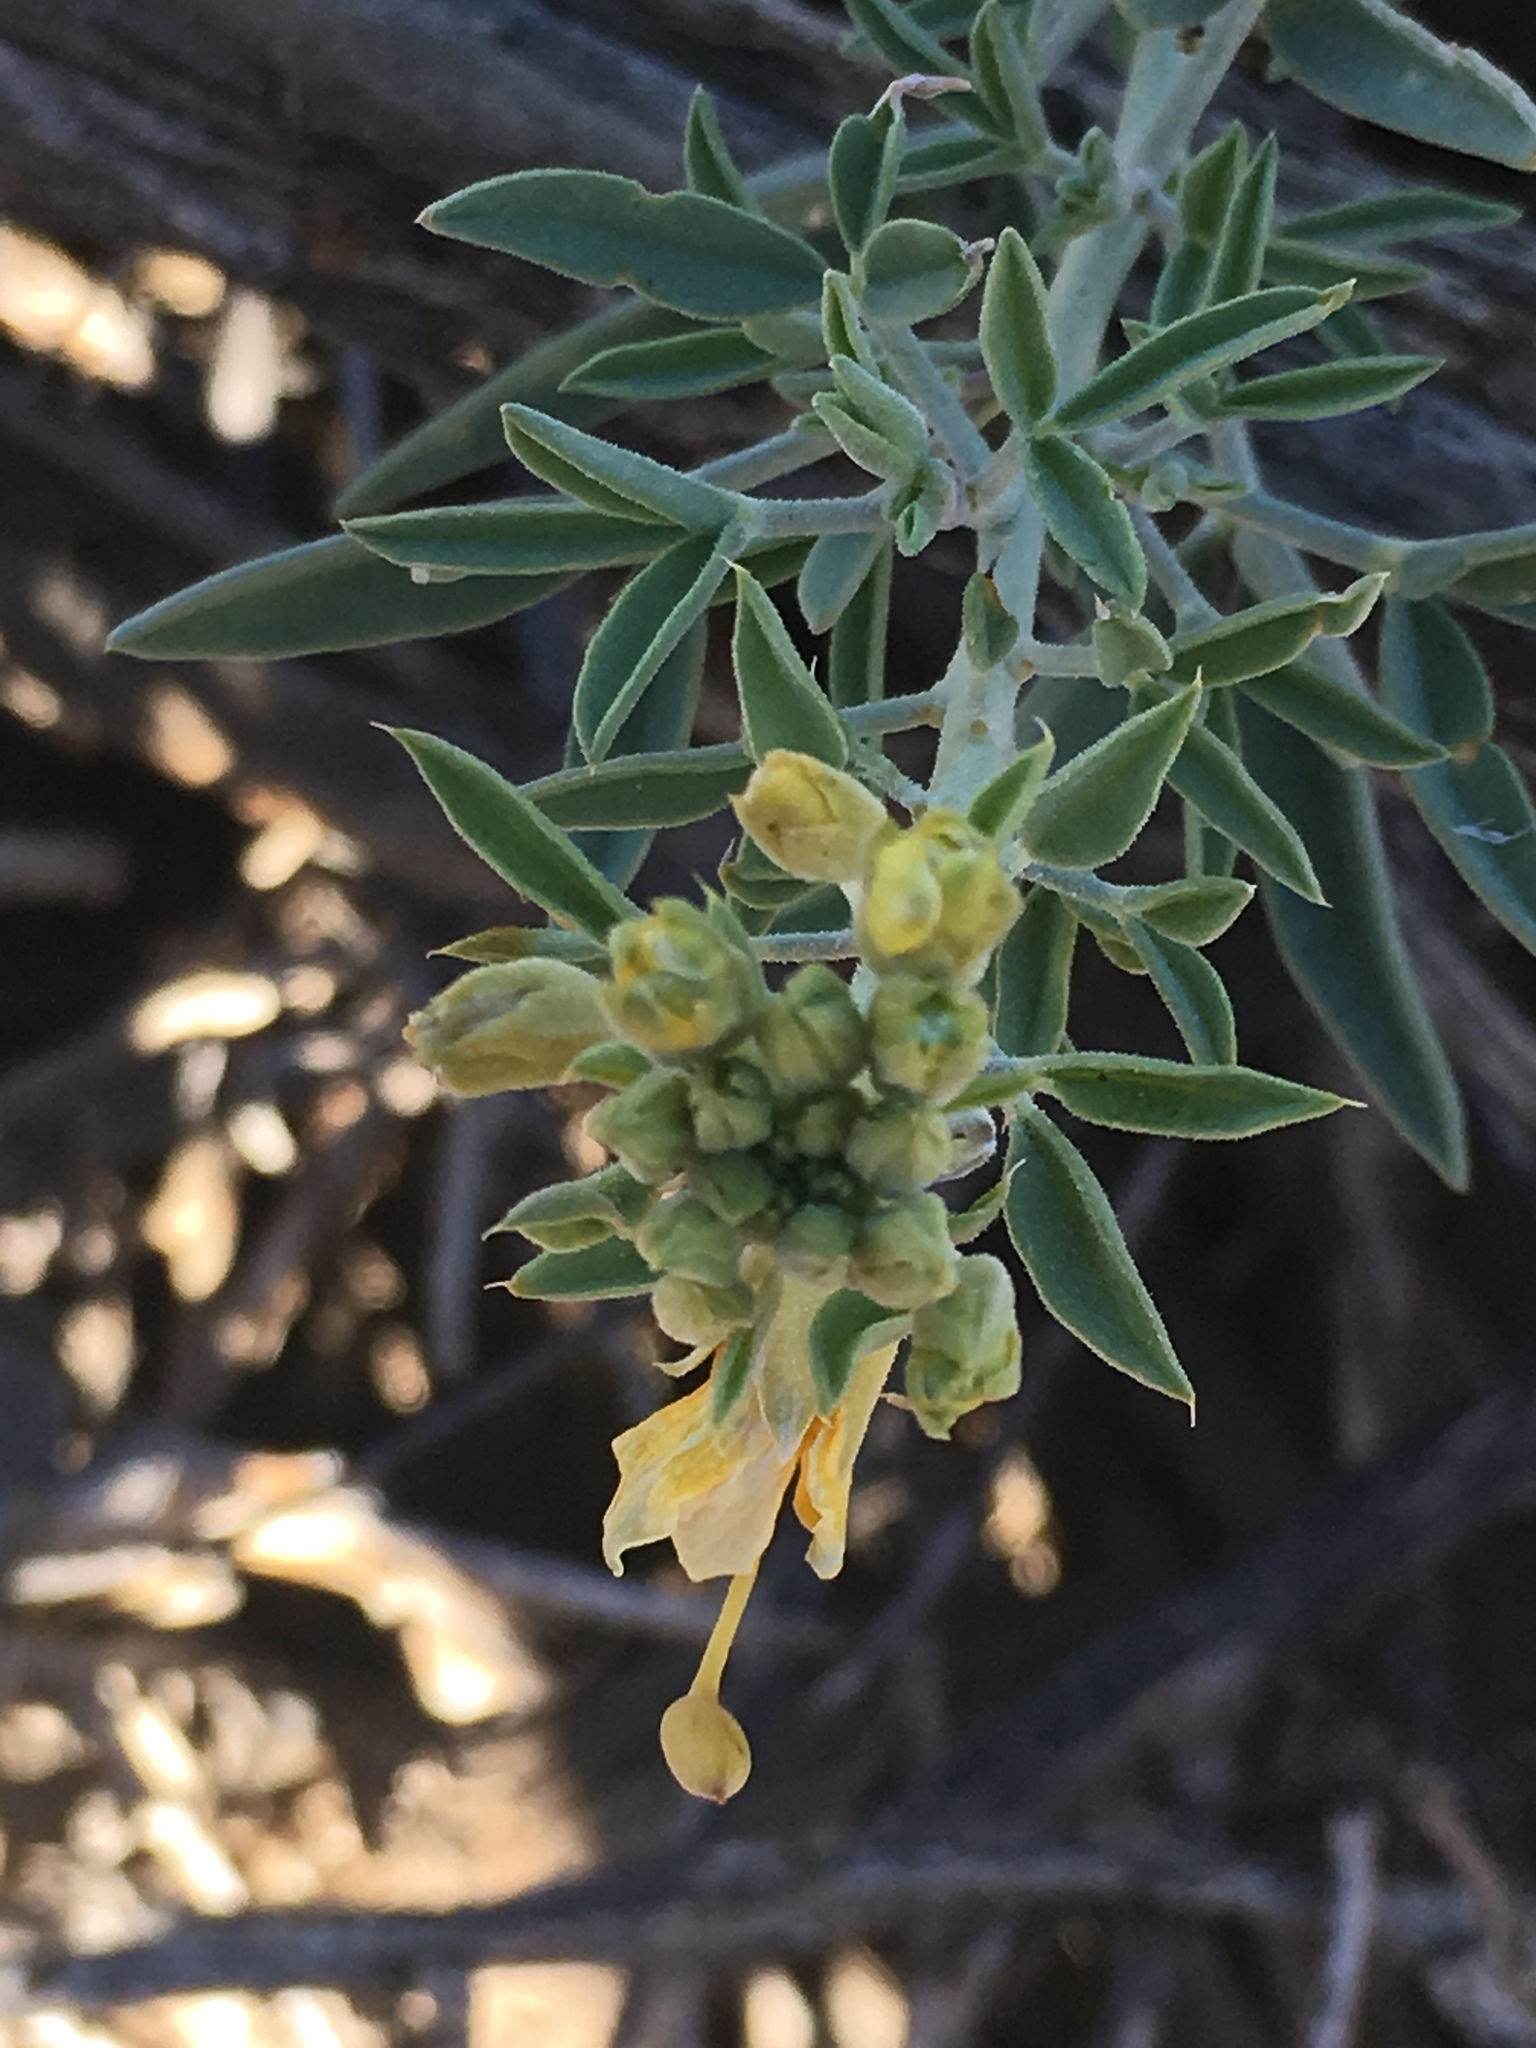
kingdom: Plantae
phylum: Tracheophyta
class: Magnoliopsida
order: Brassicales
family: Cleomaceae
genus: Cleomella
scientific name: Cleomella arborea
